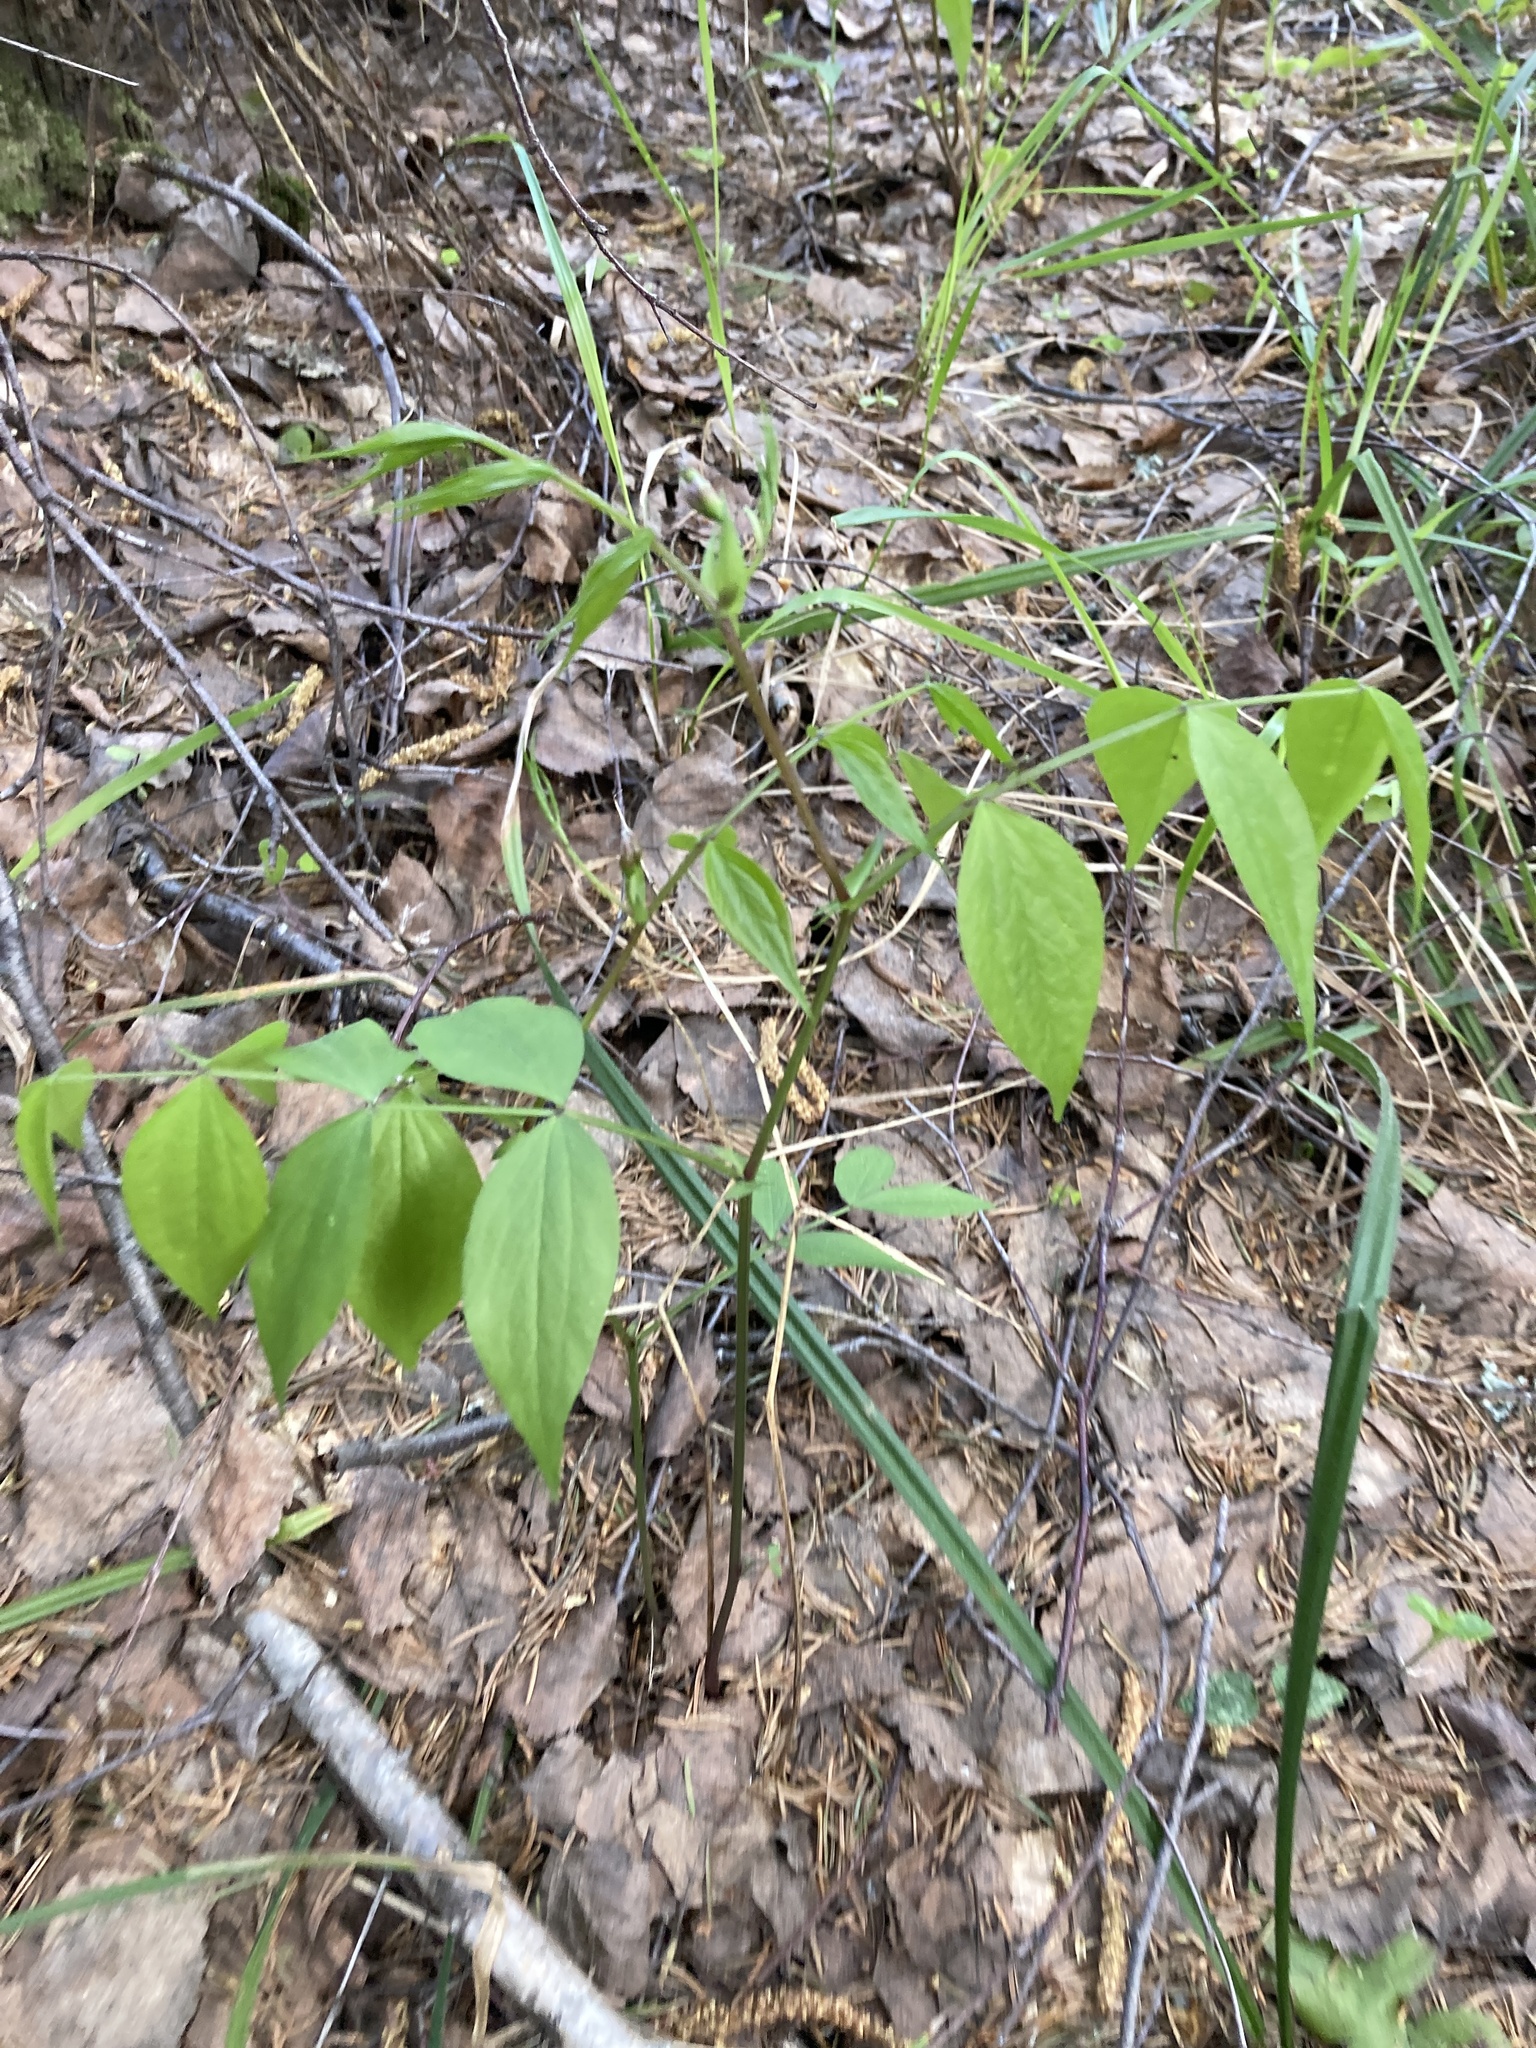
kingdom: Plantae
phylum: Tracheophyta
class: Magnoliopsida
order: Fabales
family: Fabaceae
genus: Lathyrus
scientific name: Lathyrus vernus
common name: Spring pea
